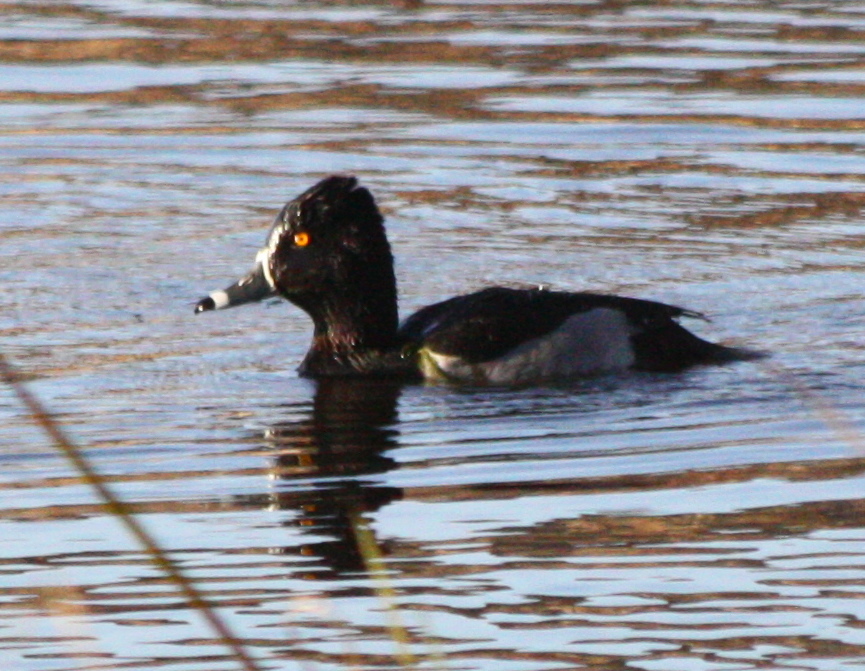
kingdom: Animalia
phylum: Chordata
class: Aves
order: Anseriformes
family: Anatidae
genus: Aythya
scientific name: Aythya collaris
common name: Ring-necked duck
